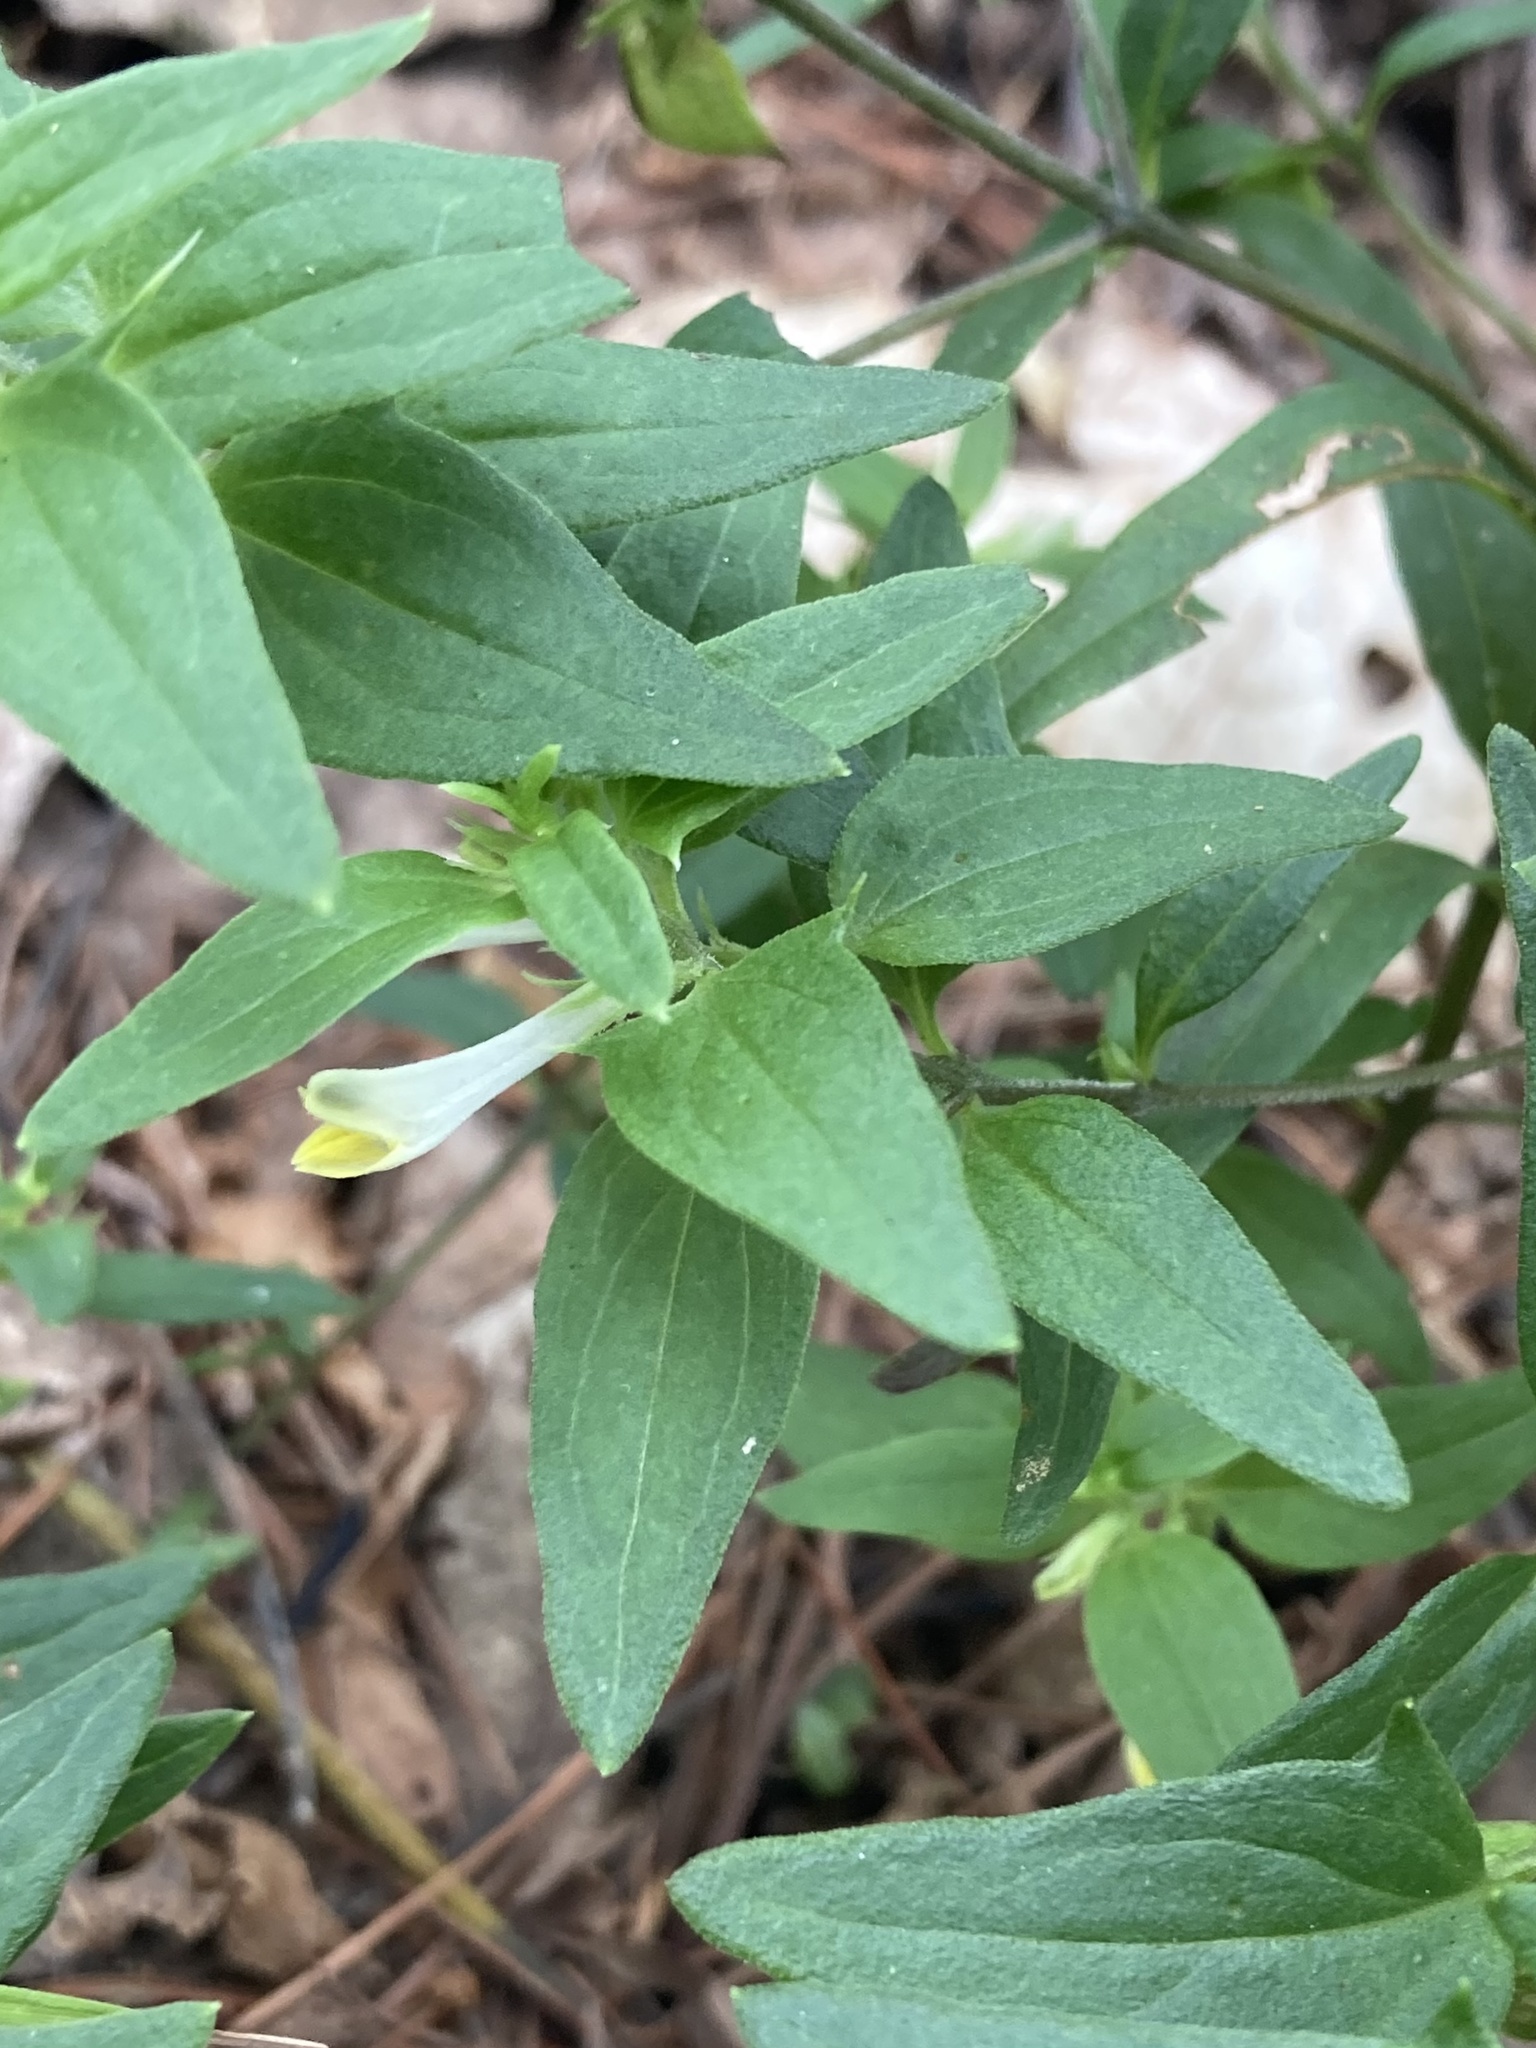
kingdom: Plantae
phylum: Tracheophyta
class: Magnoliopsida
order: Lamiales
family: Orobanchaceae
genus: Melampyrum
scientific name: Melampyrum lineare
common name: American cow-wheat
